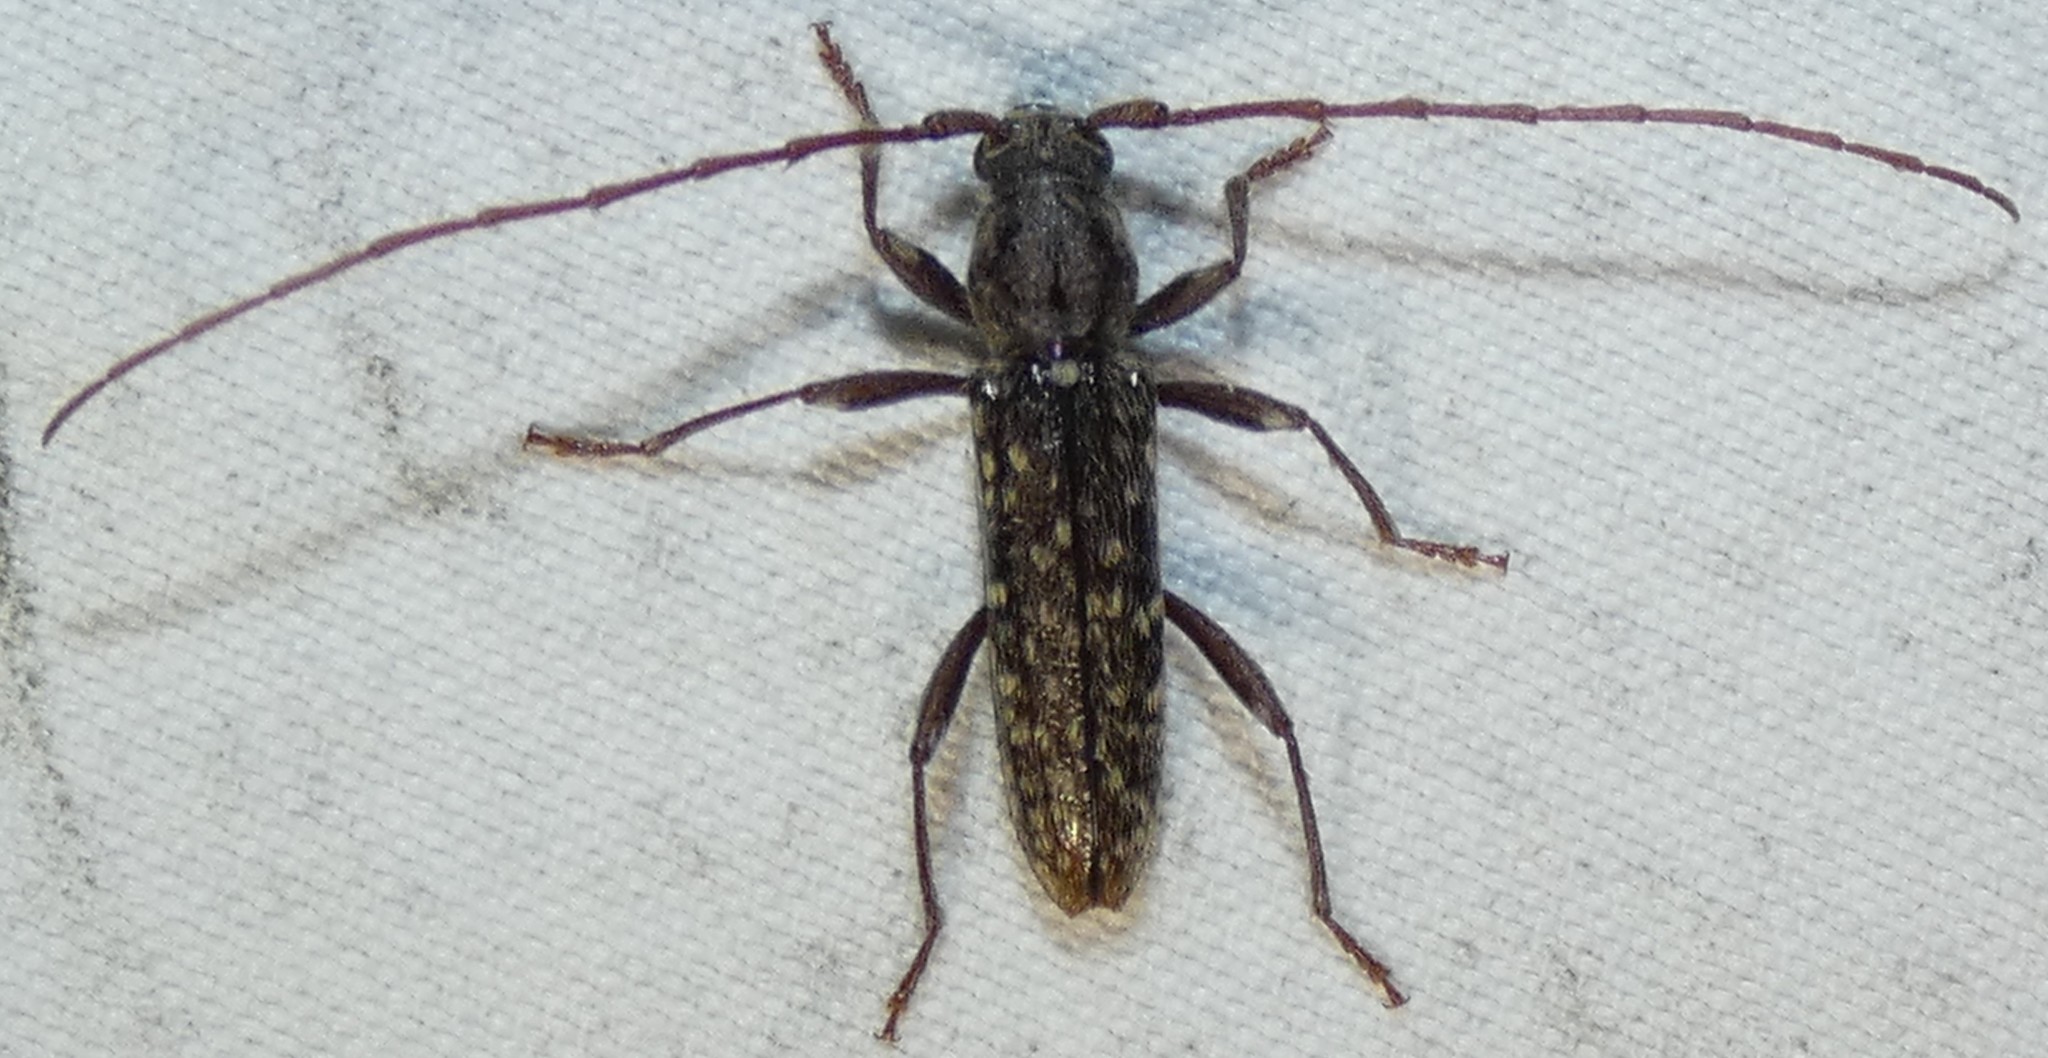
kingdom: Animalia
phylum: Arthropoda
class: Insecta
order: Coleoptera
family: Cerambycidae
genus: Anelaphus
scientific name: Anelaphus pumilus
